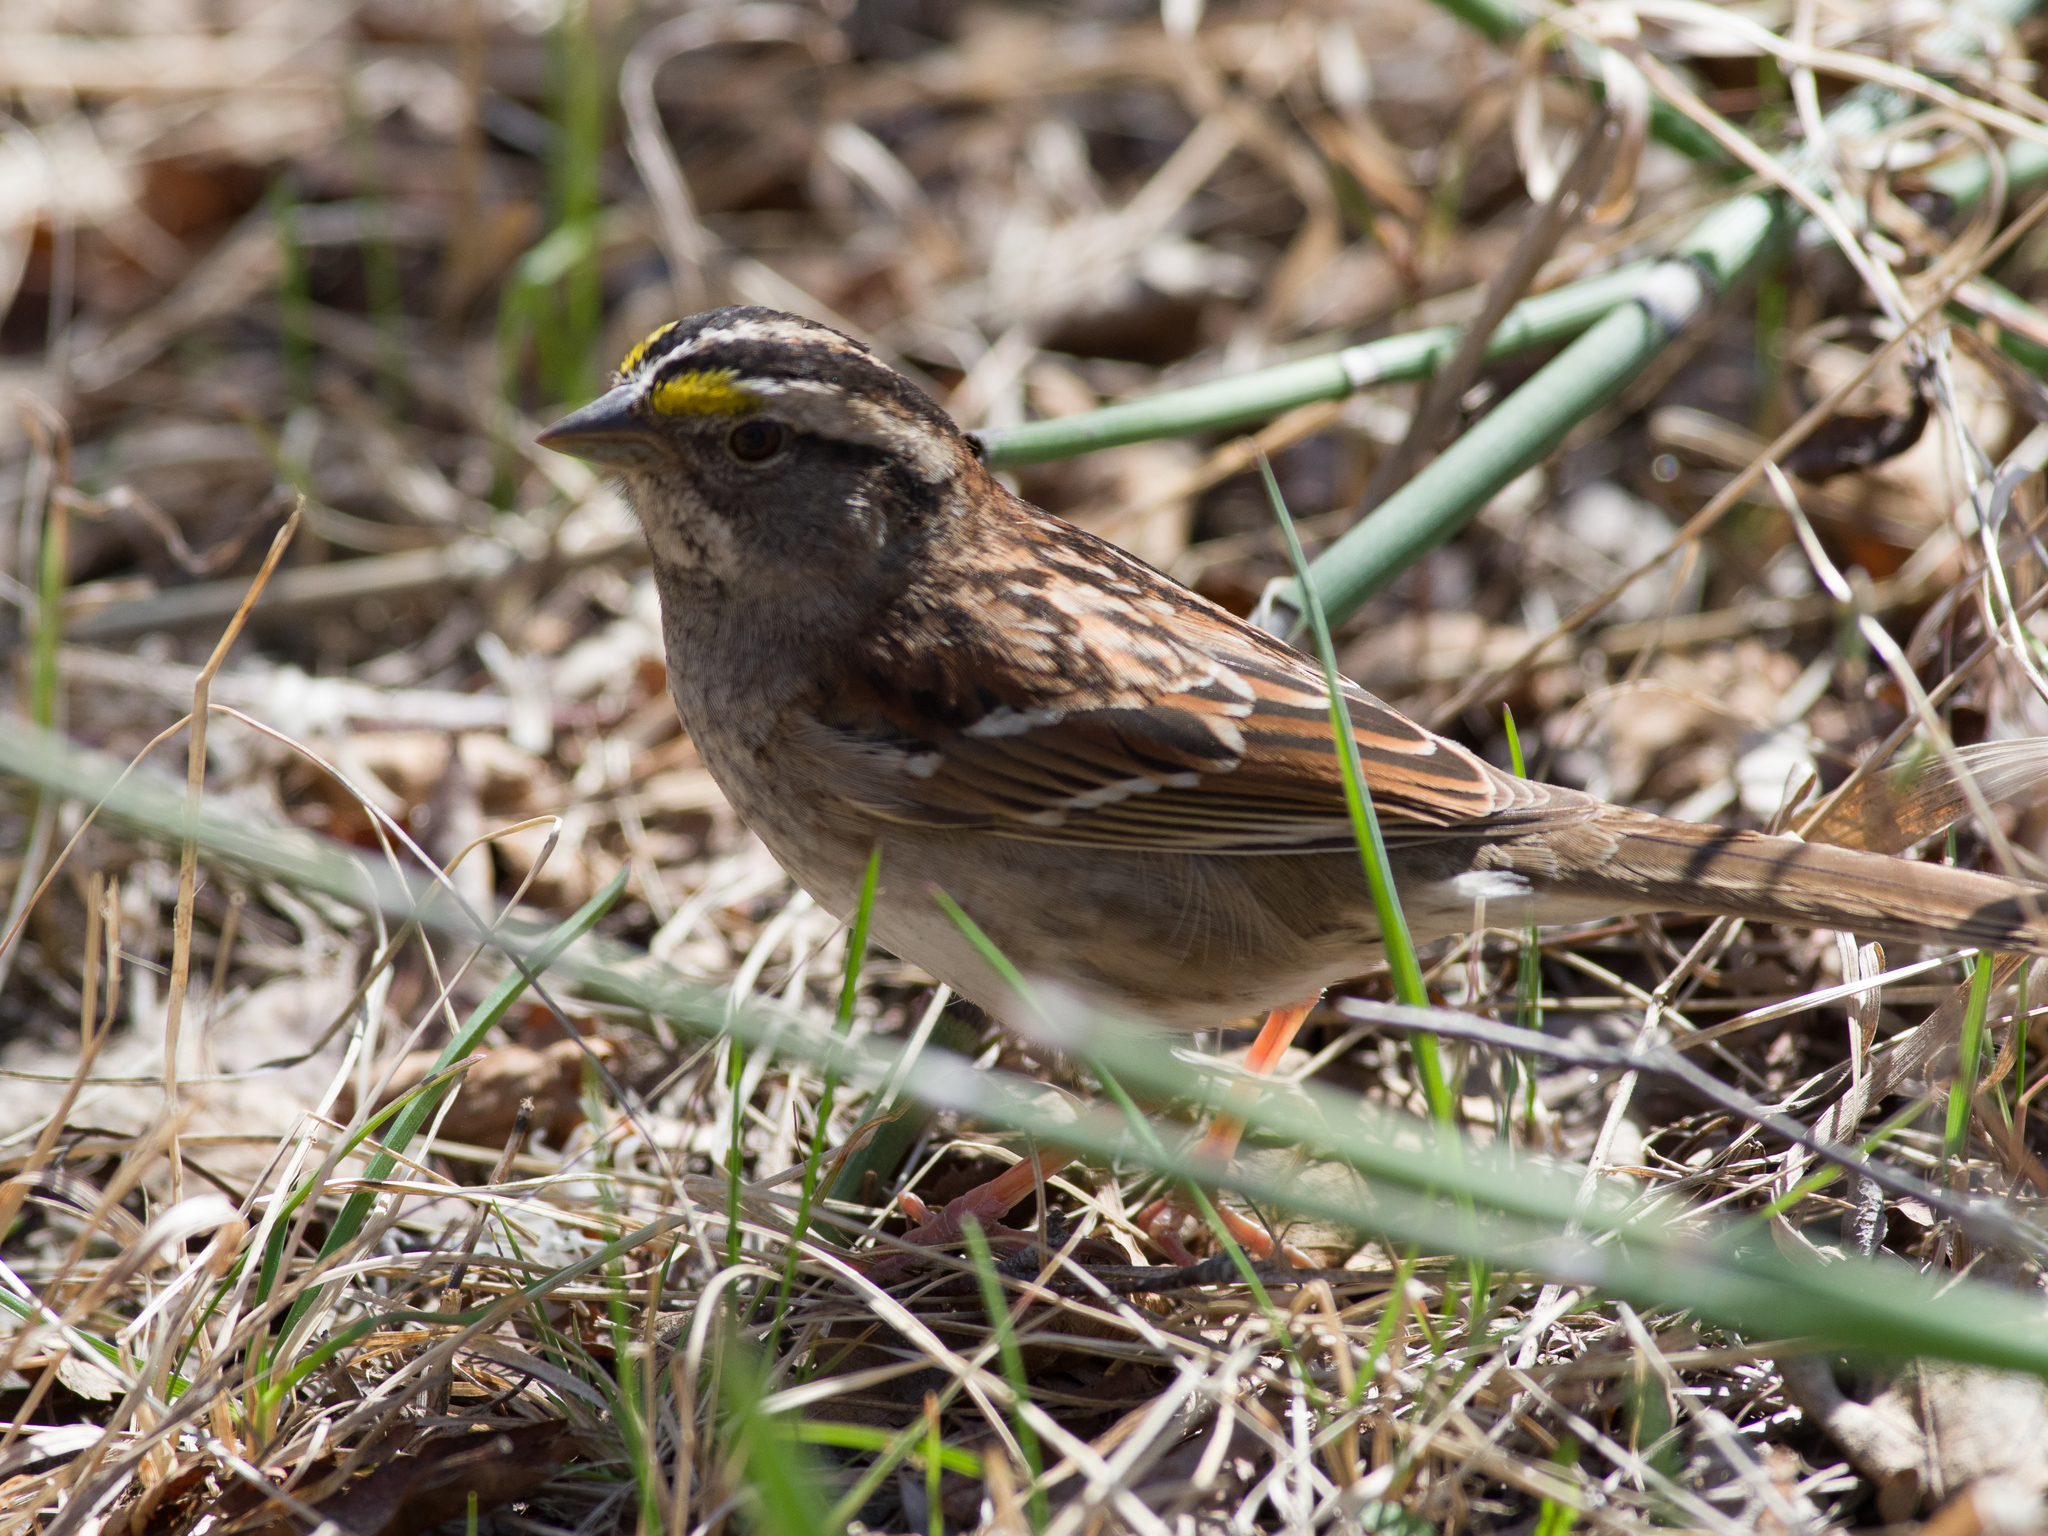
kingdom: Animalia
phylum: Chordata
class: Aves
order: Passeriformes
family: Passerellidae
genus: Zonotrichia
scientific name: Zonotrichia albicollis
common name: White-throated sparrow
